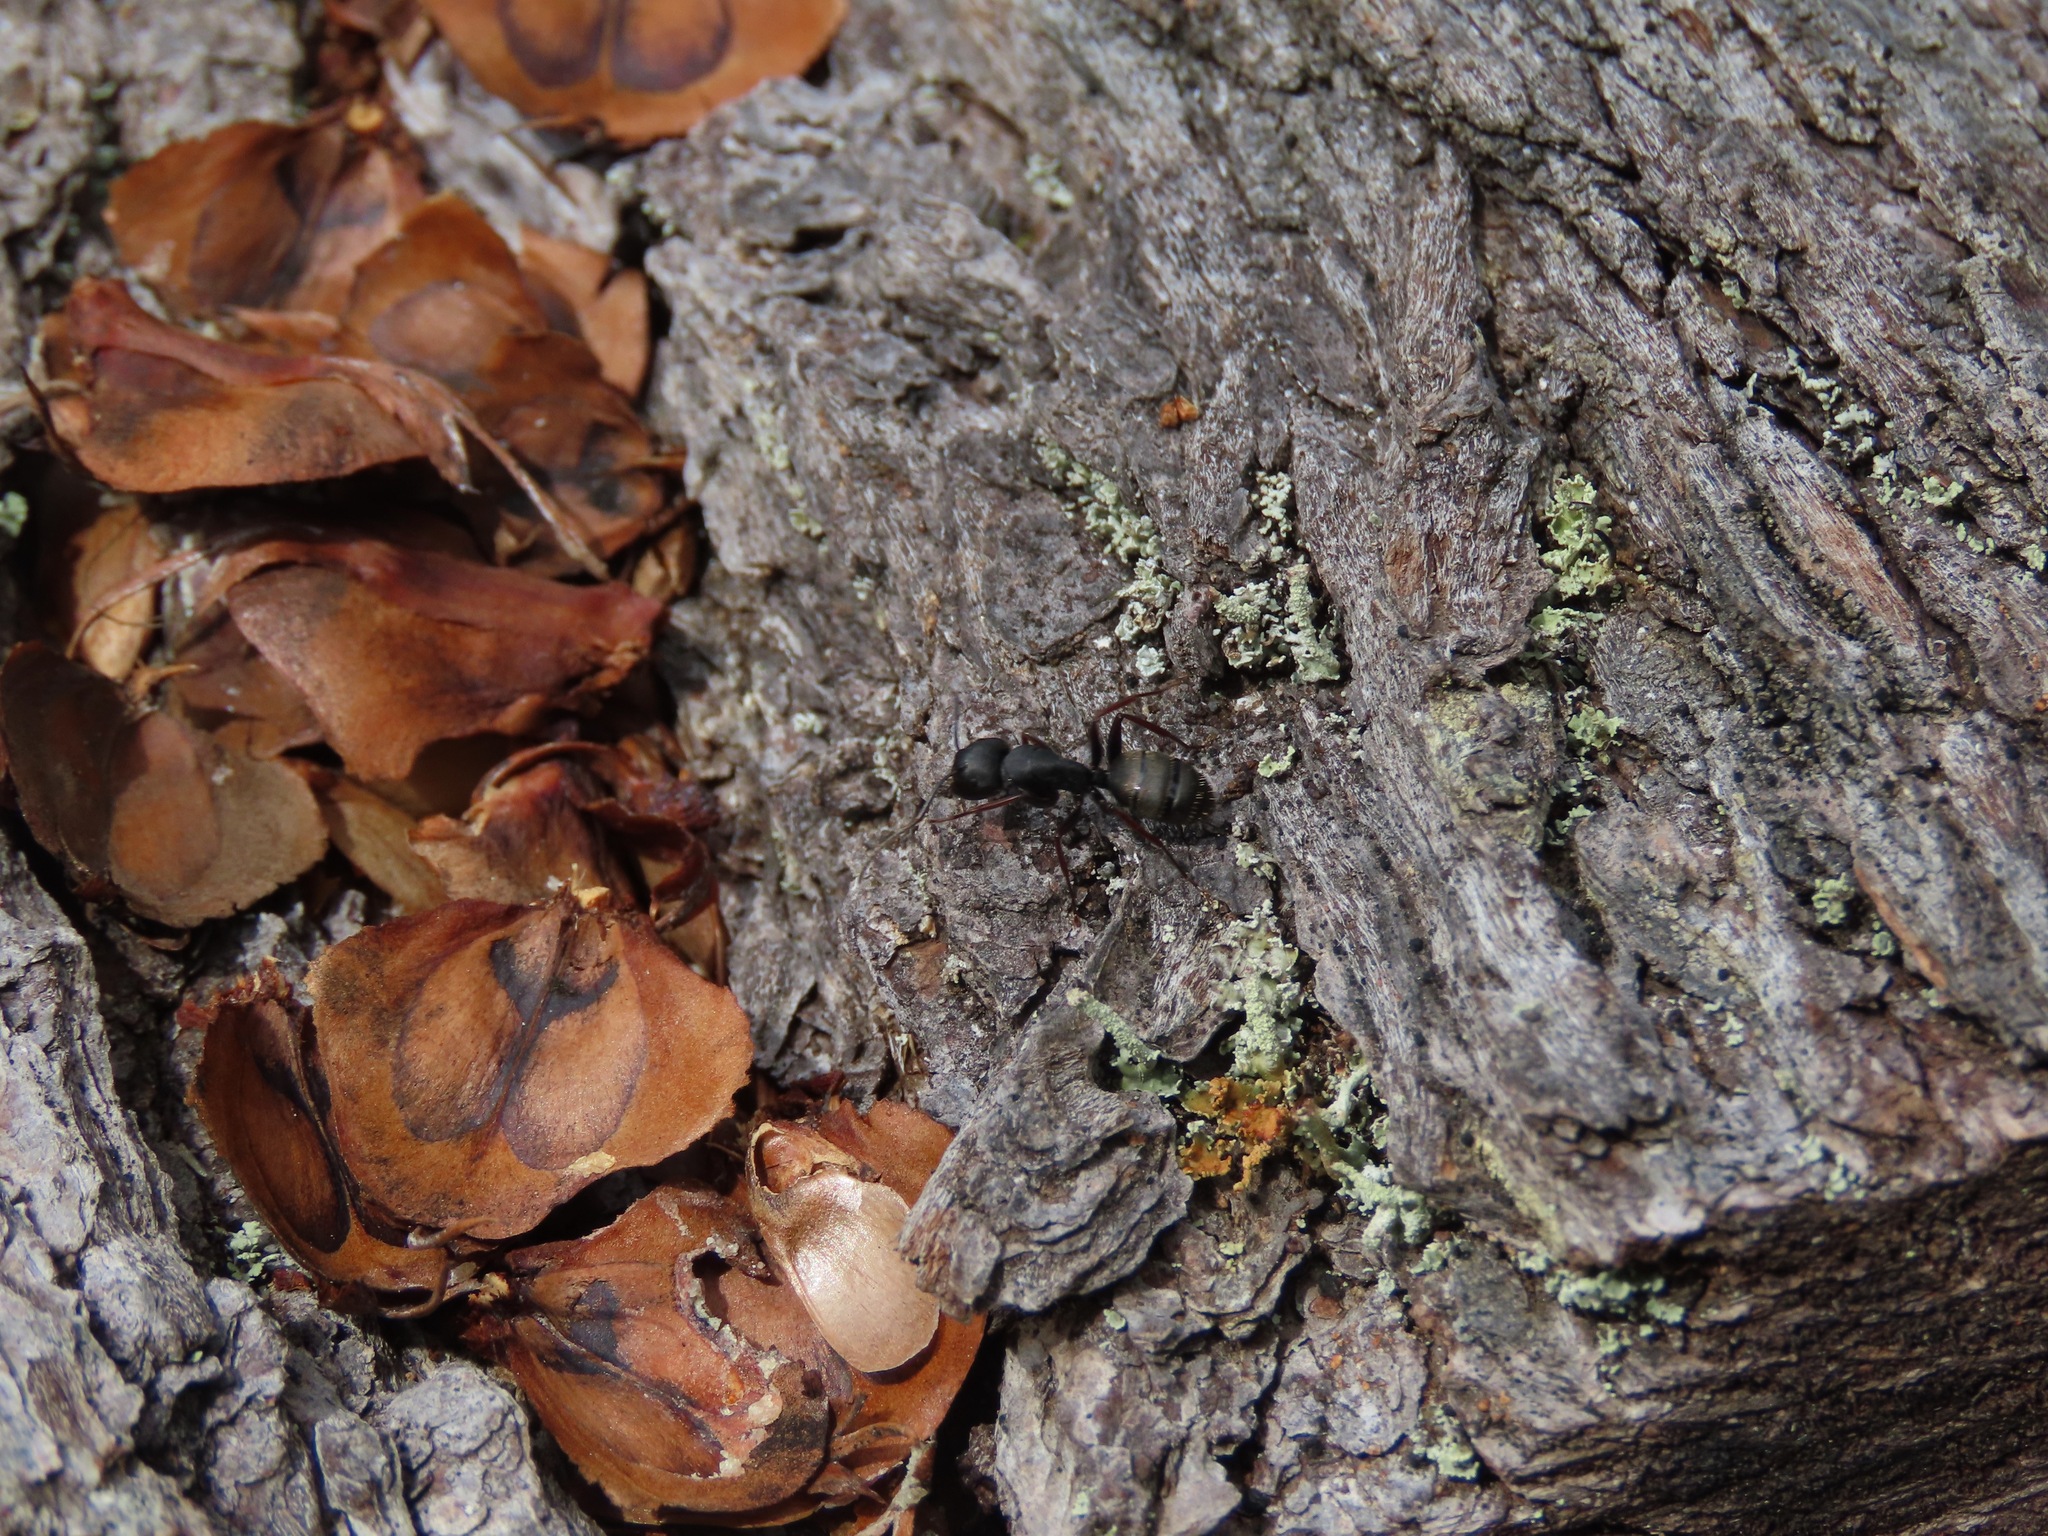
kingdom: Animalia
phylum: Arthropoda
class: Insecta
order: Hymenoptera
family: Formicidae
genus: Camponotus
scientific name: Camponotus modoc
